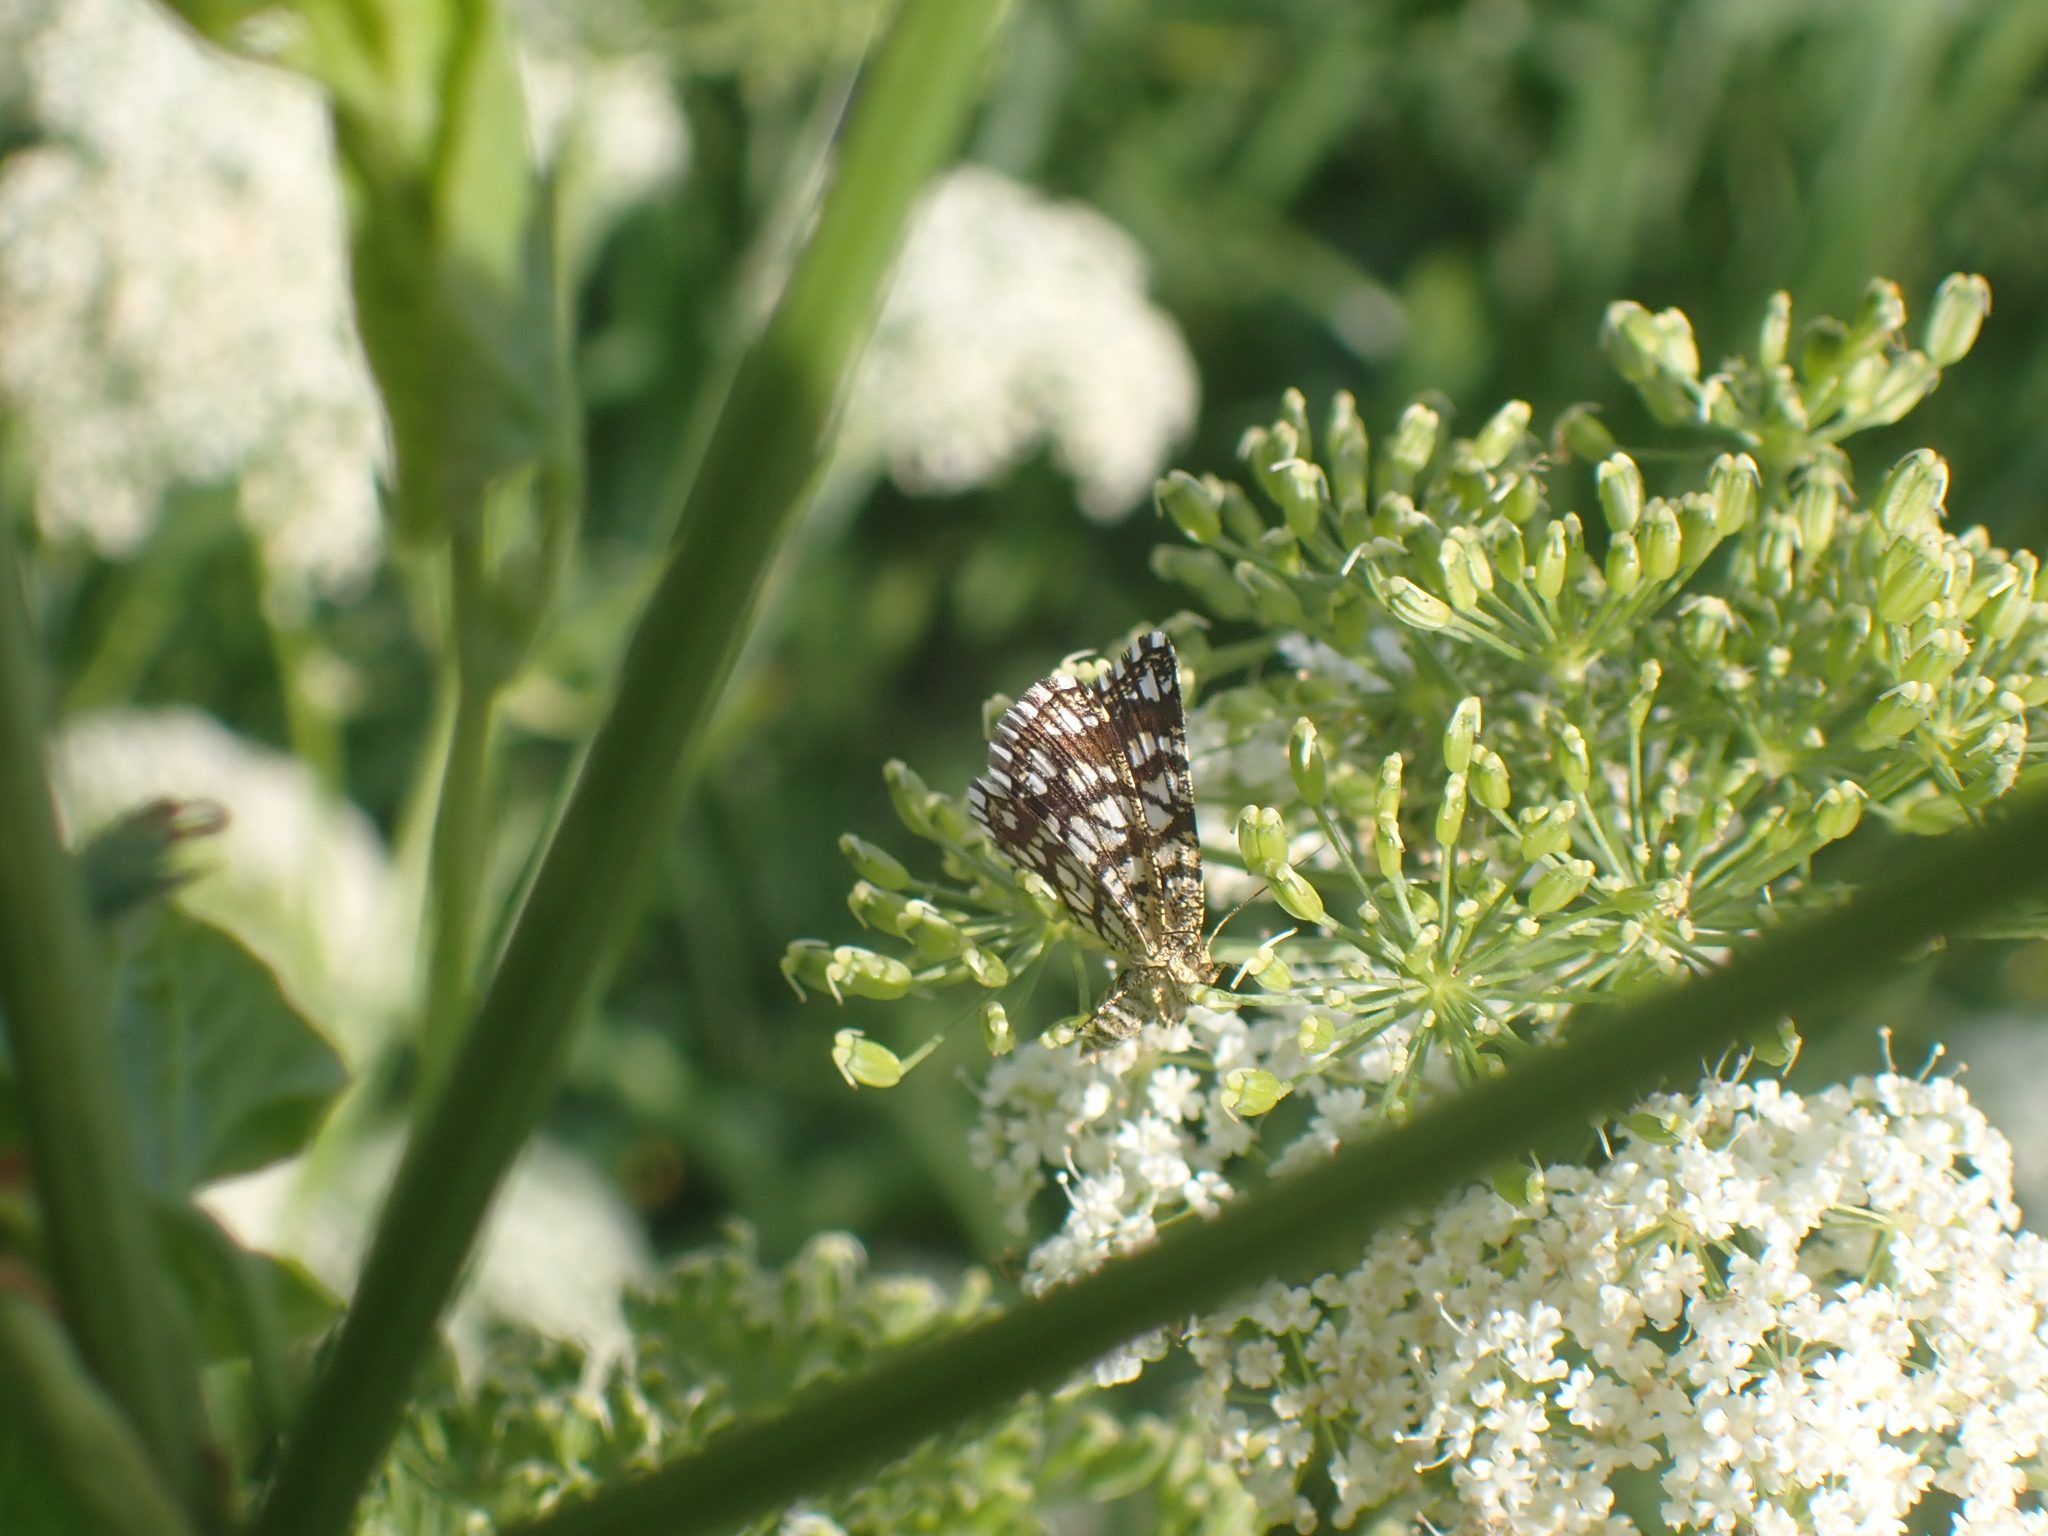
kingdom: Animalia
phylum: Arthropoda
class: Insecta
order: Lepidoptera
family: Geometridae
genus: Chiasmia
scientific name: Chiasmia clathrata
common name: Latticed heath
